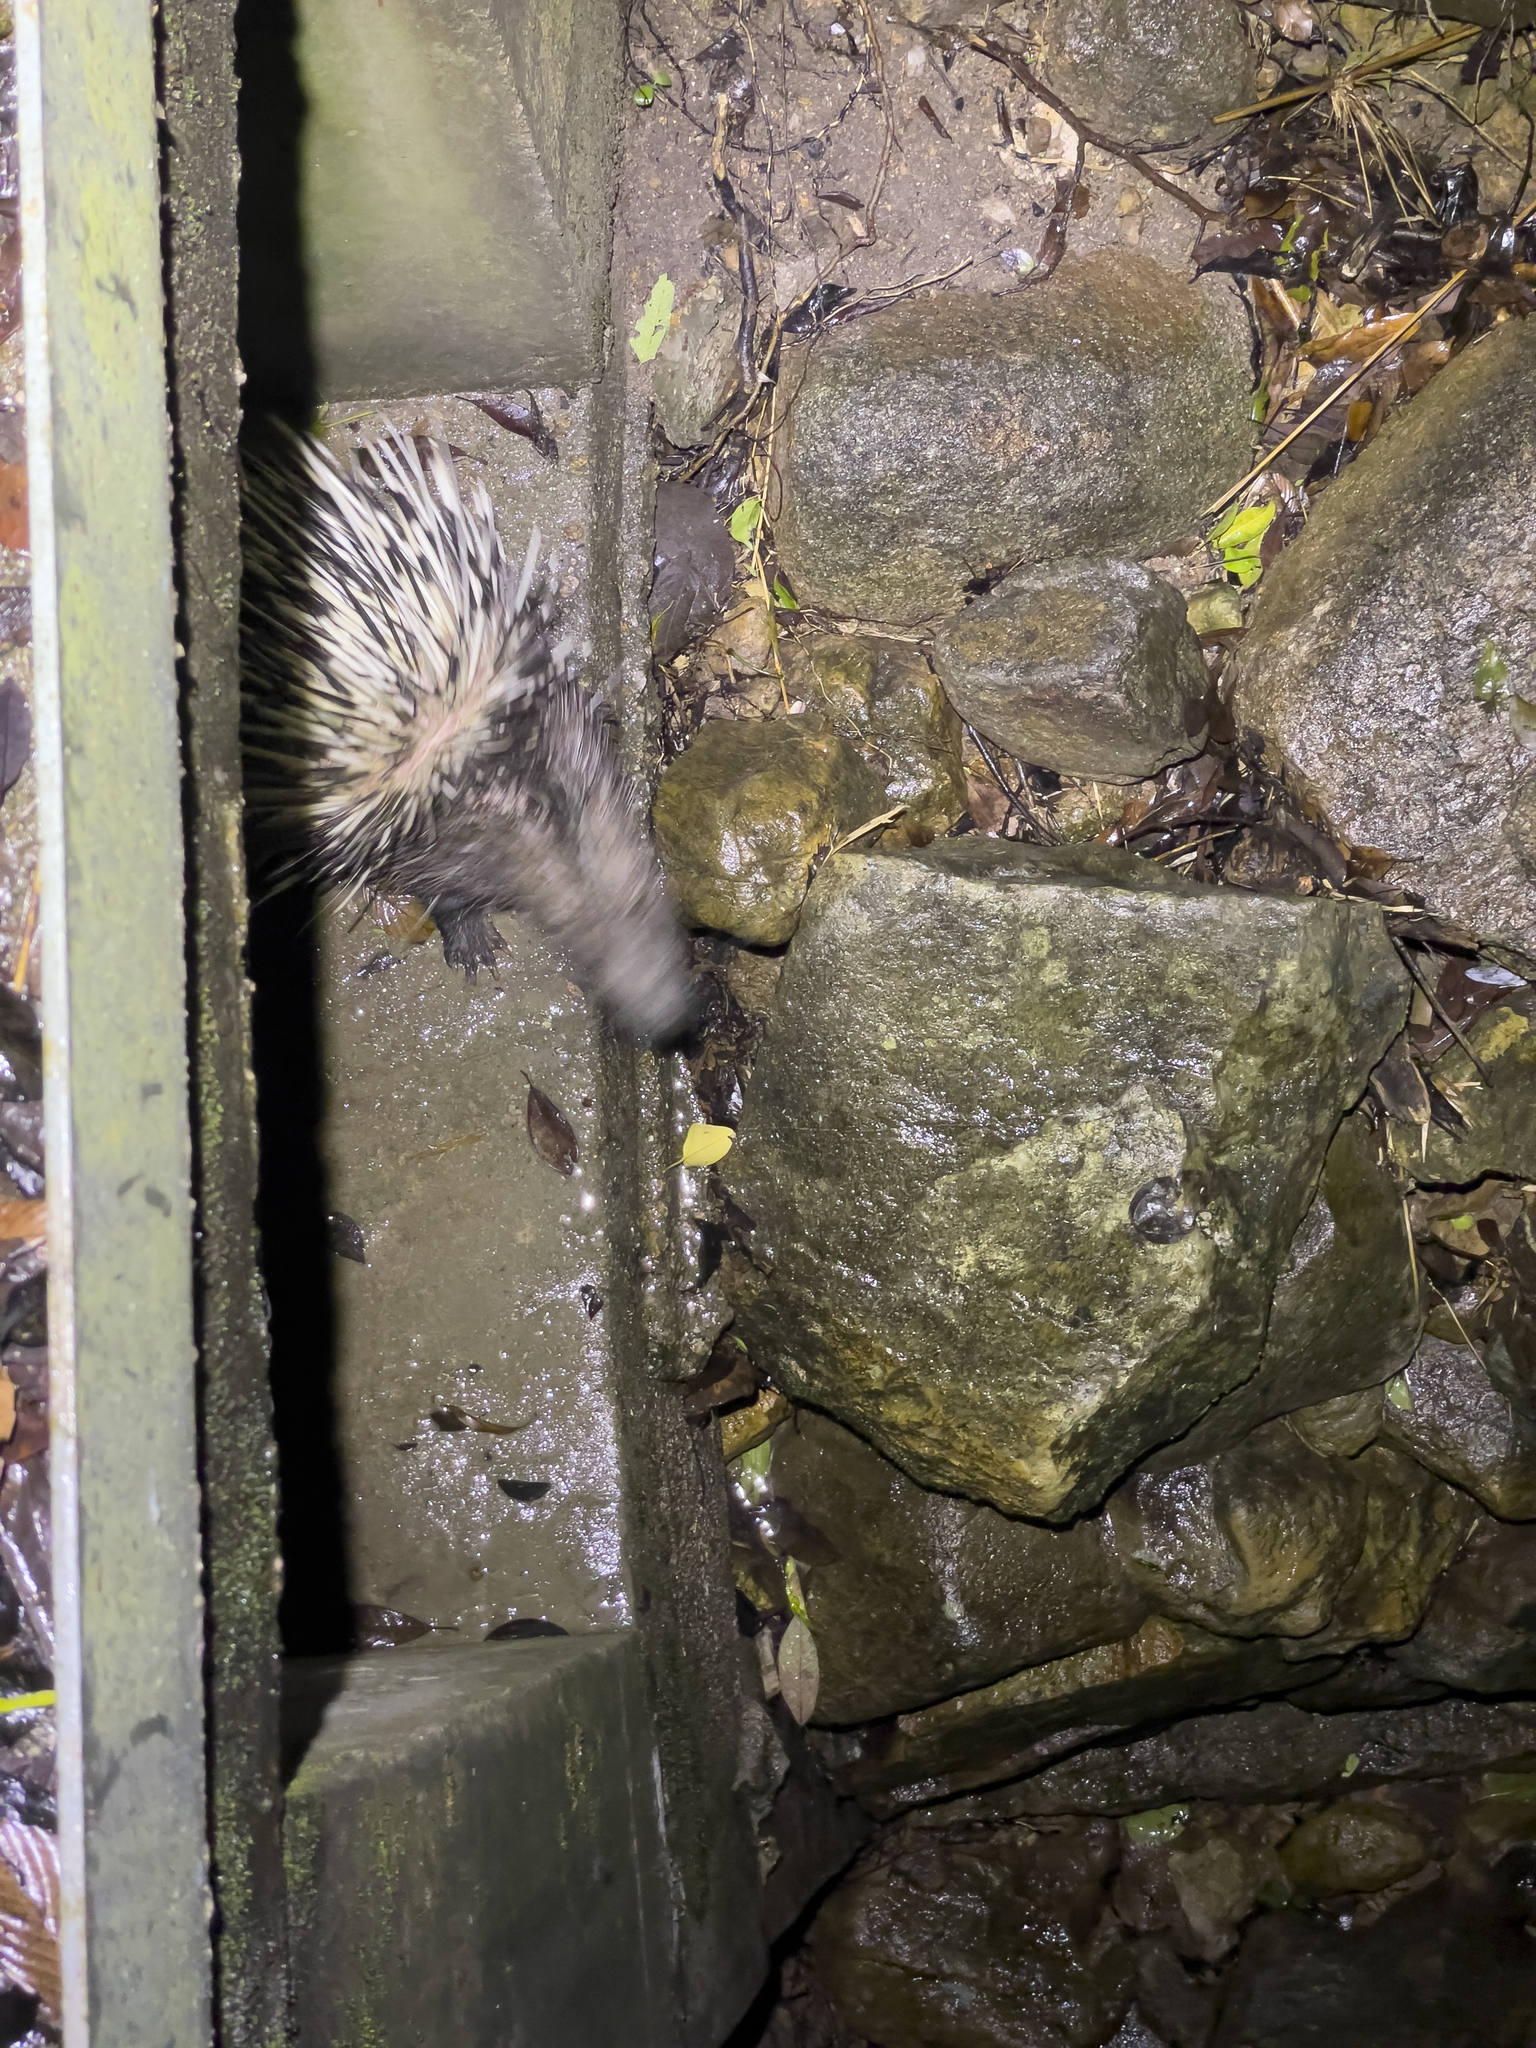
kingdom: Animalia
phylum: Chordata
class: Mammalia
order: Rodentia
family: Hystricidae
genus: Hystrix
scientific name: Hystrix brachyura
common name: Malayan porcupine
